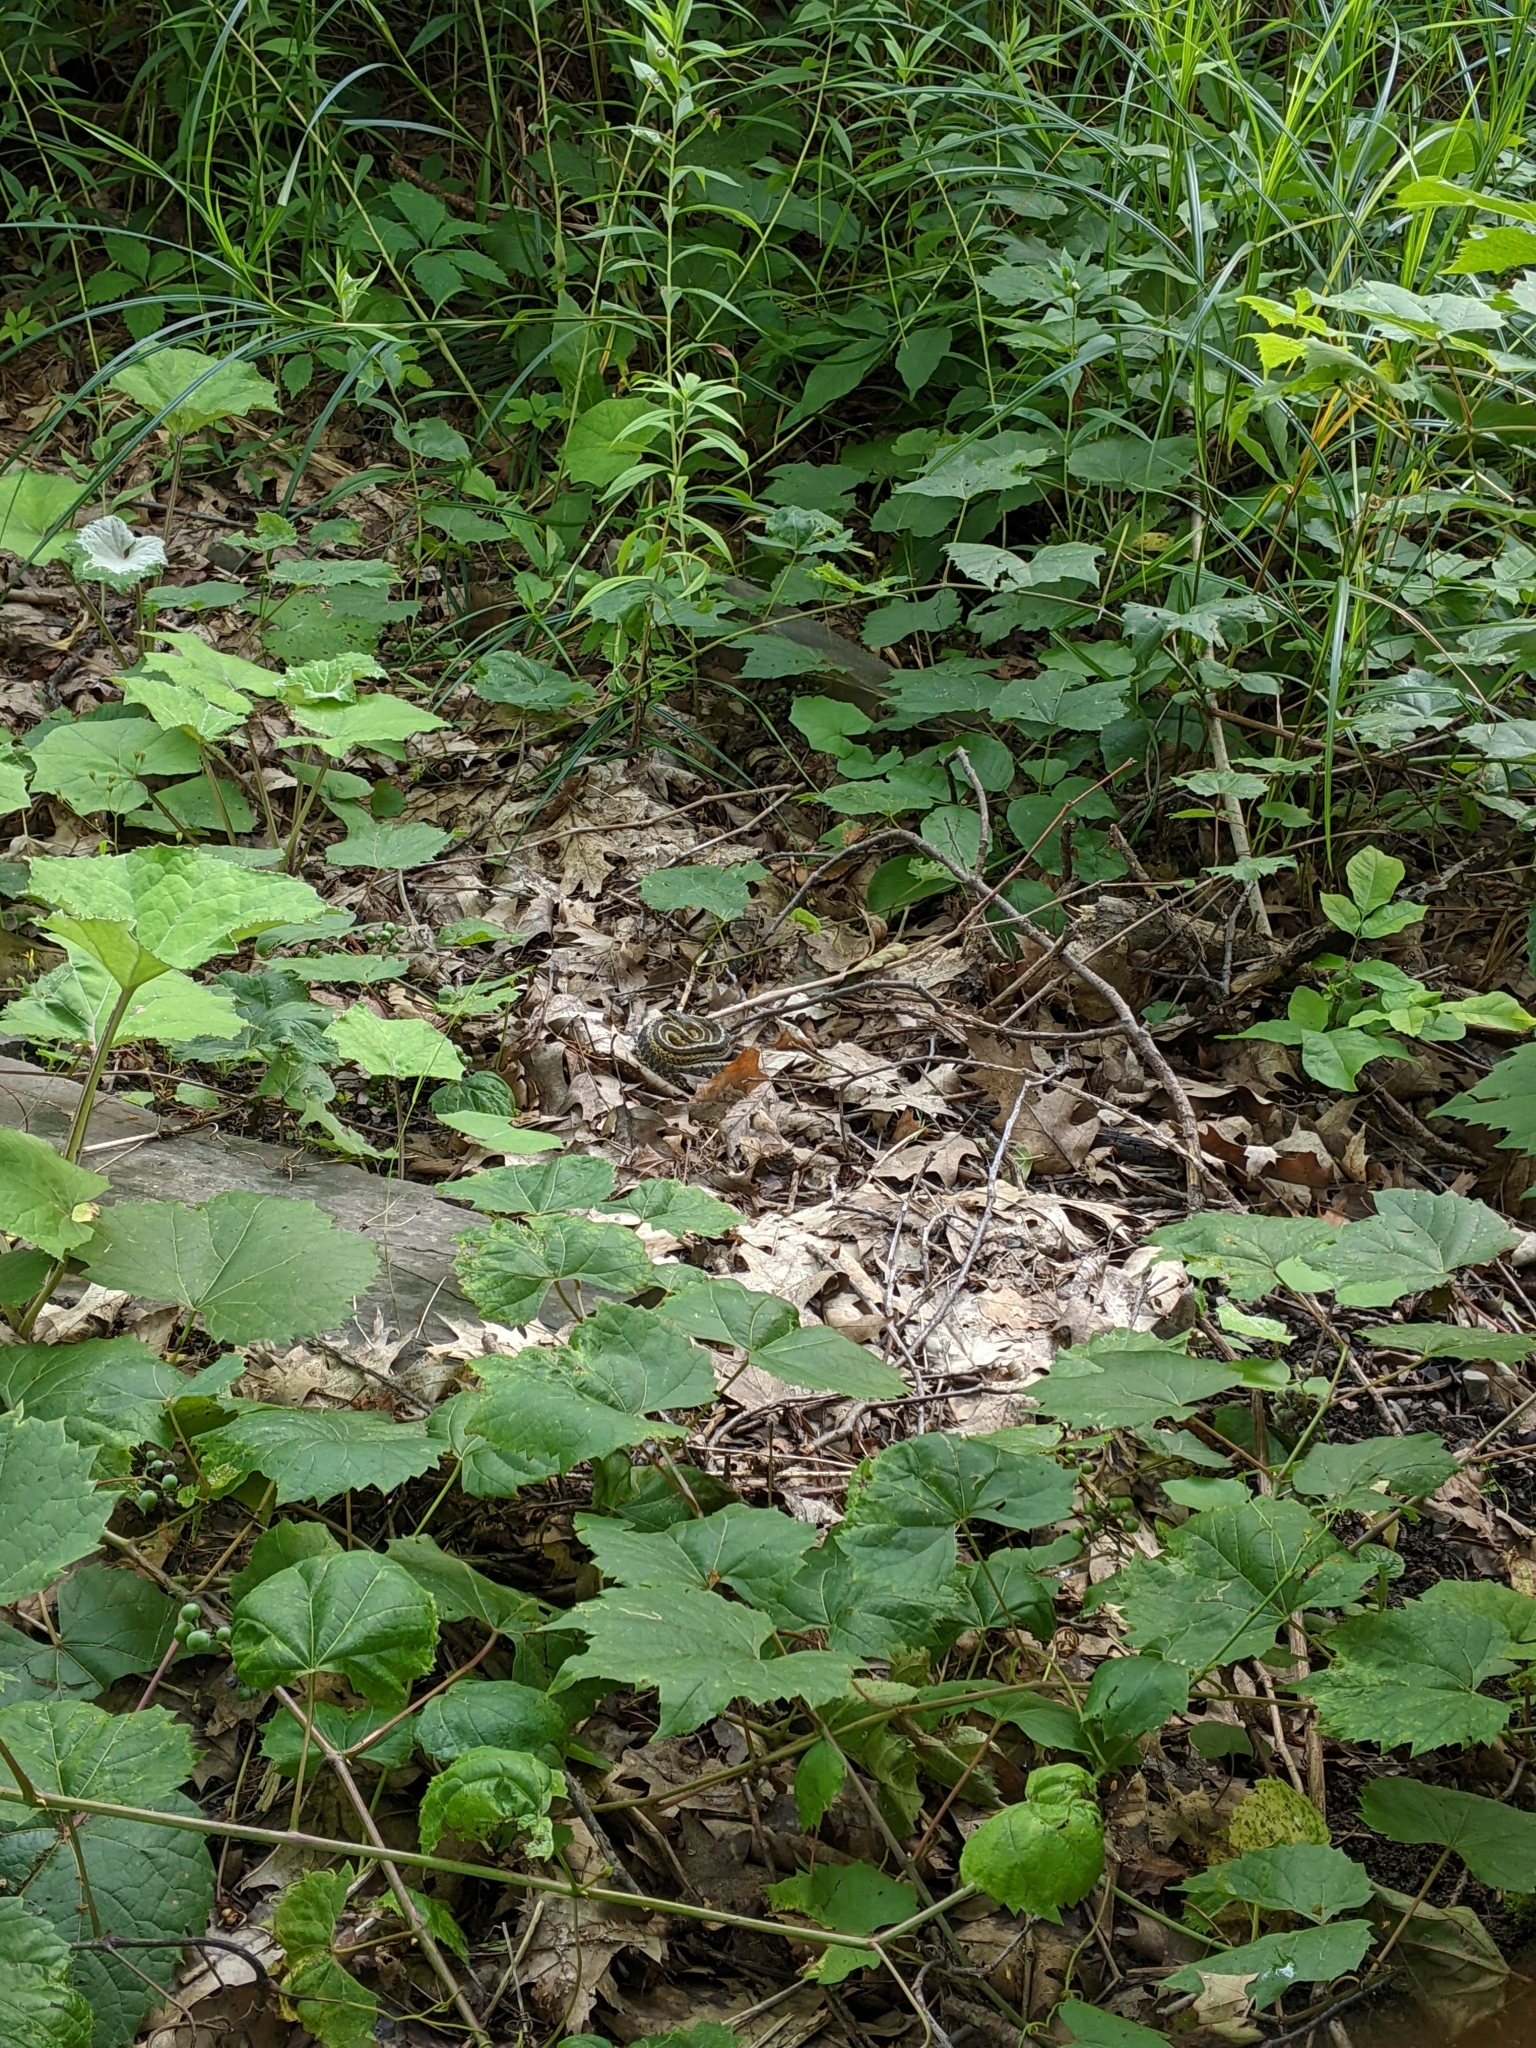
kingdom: Animalia
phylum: Chordata
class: Squamata
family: Colubridae
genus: Thamnophis
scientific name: Thamnophis sirtalis
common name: Common garter snake
